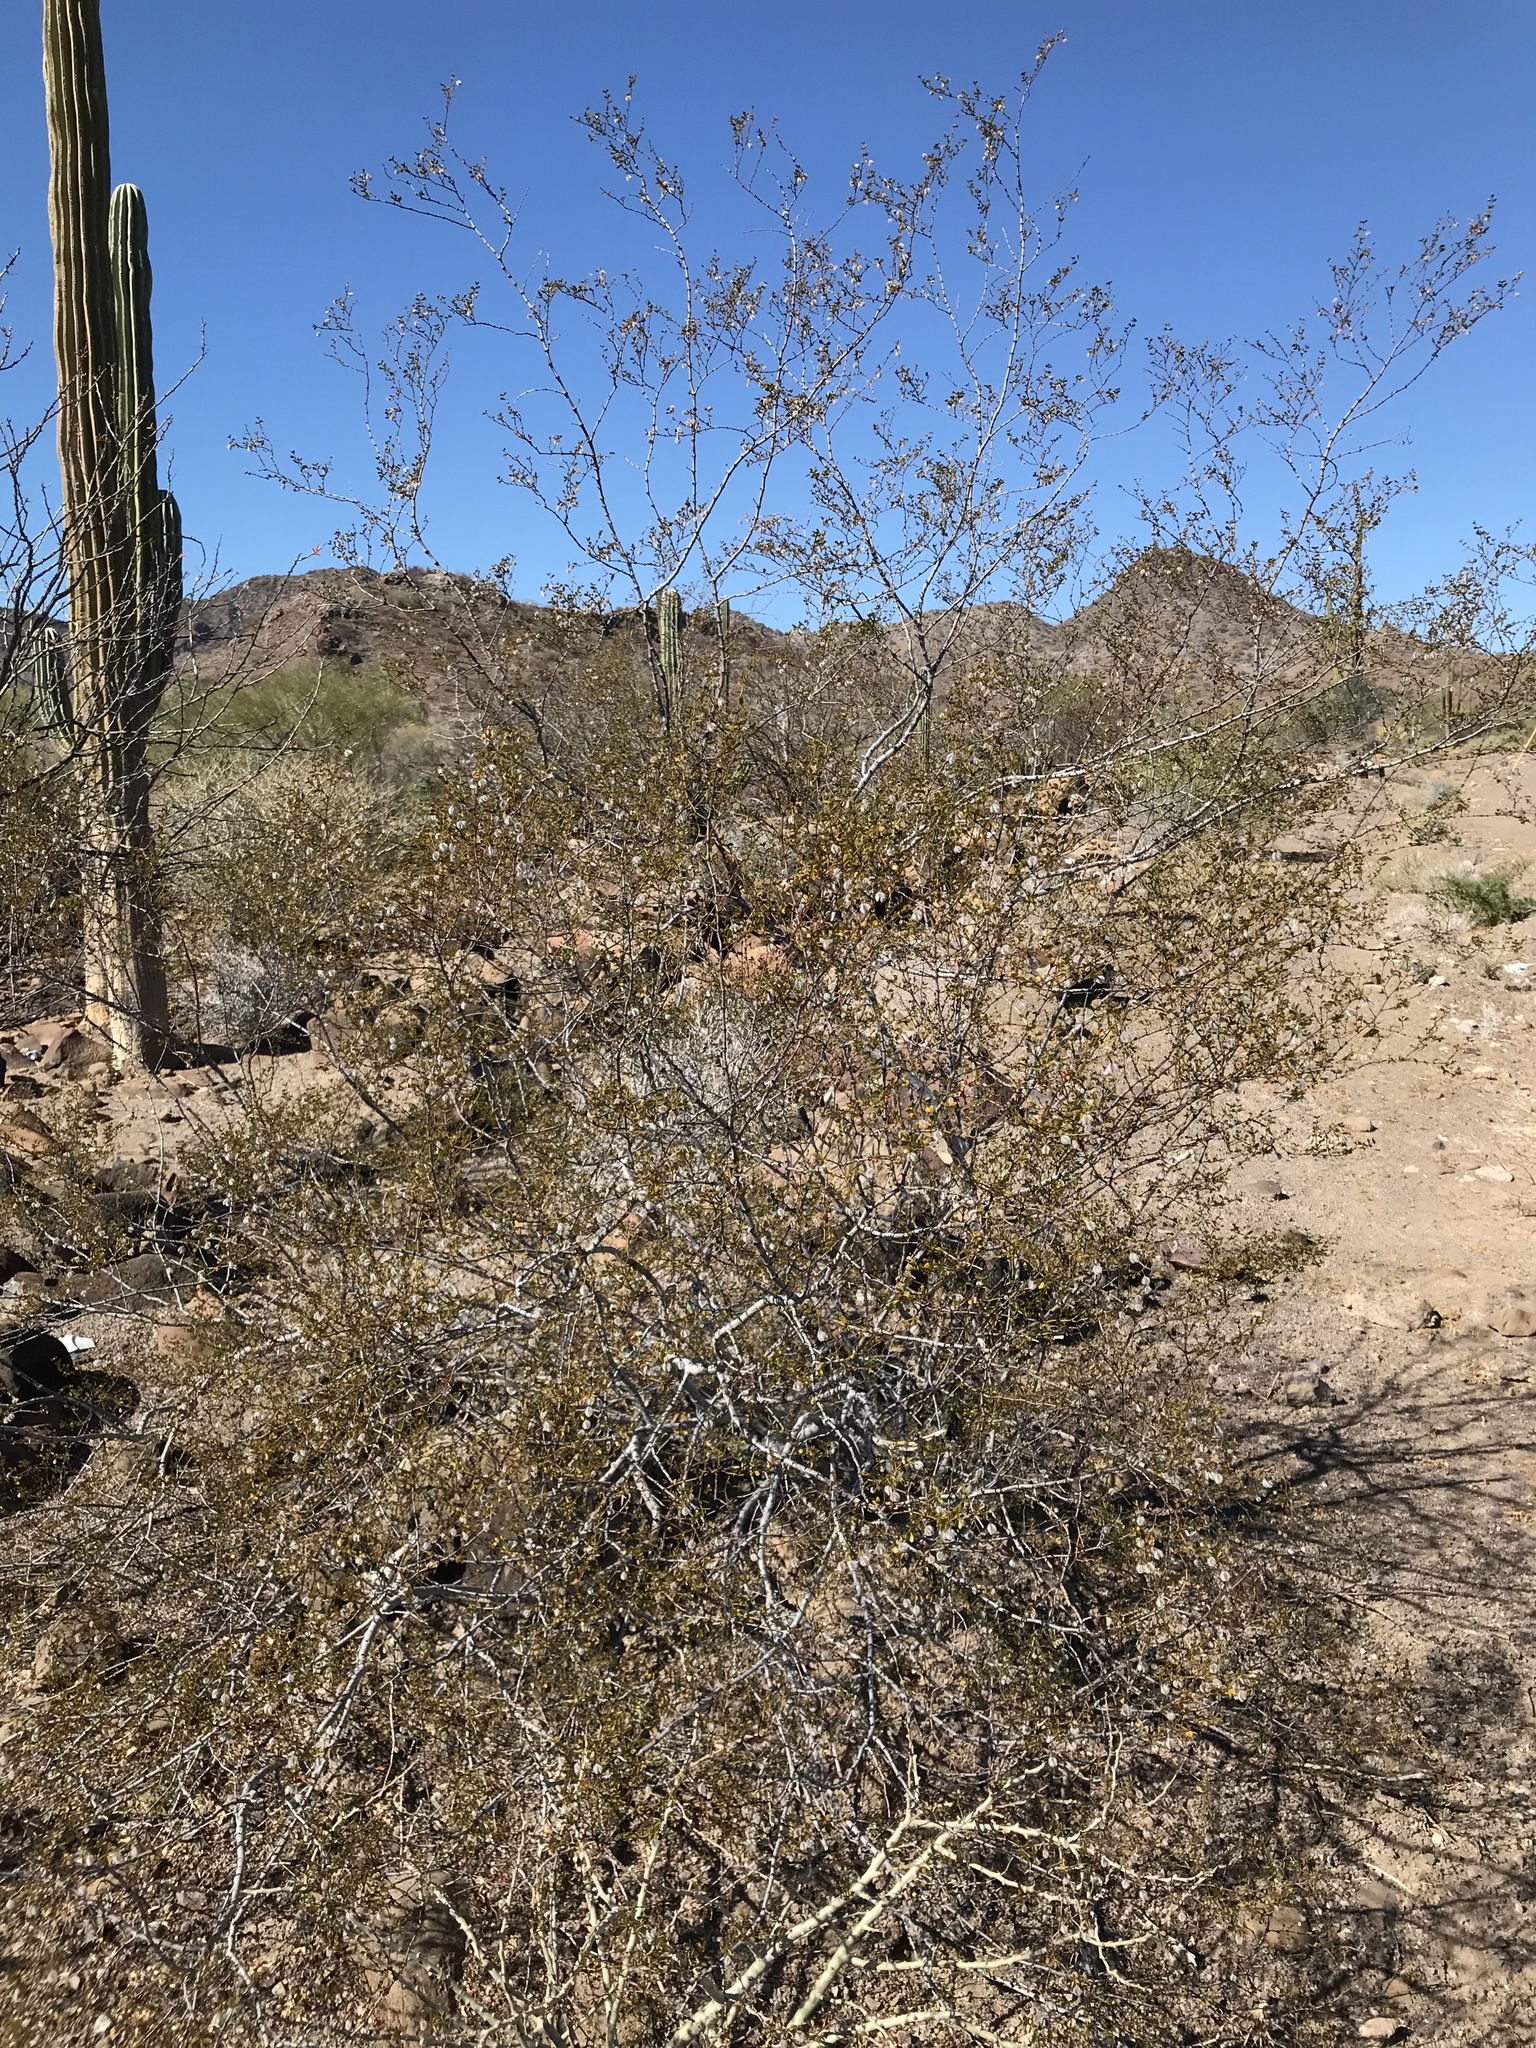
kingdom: Plantae
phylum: Tracheophyta
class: Magnoliopsida
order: Zygophyllales
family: Zygophyllaceae
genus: Larrea
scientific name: Larrea tridentata
